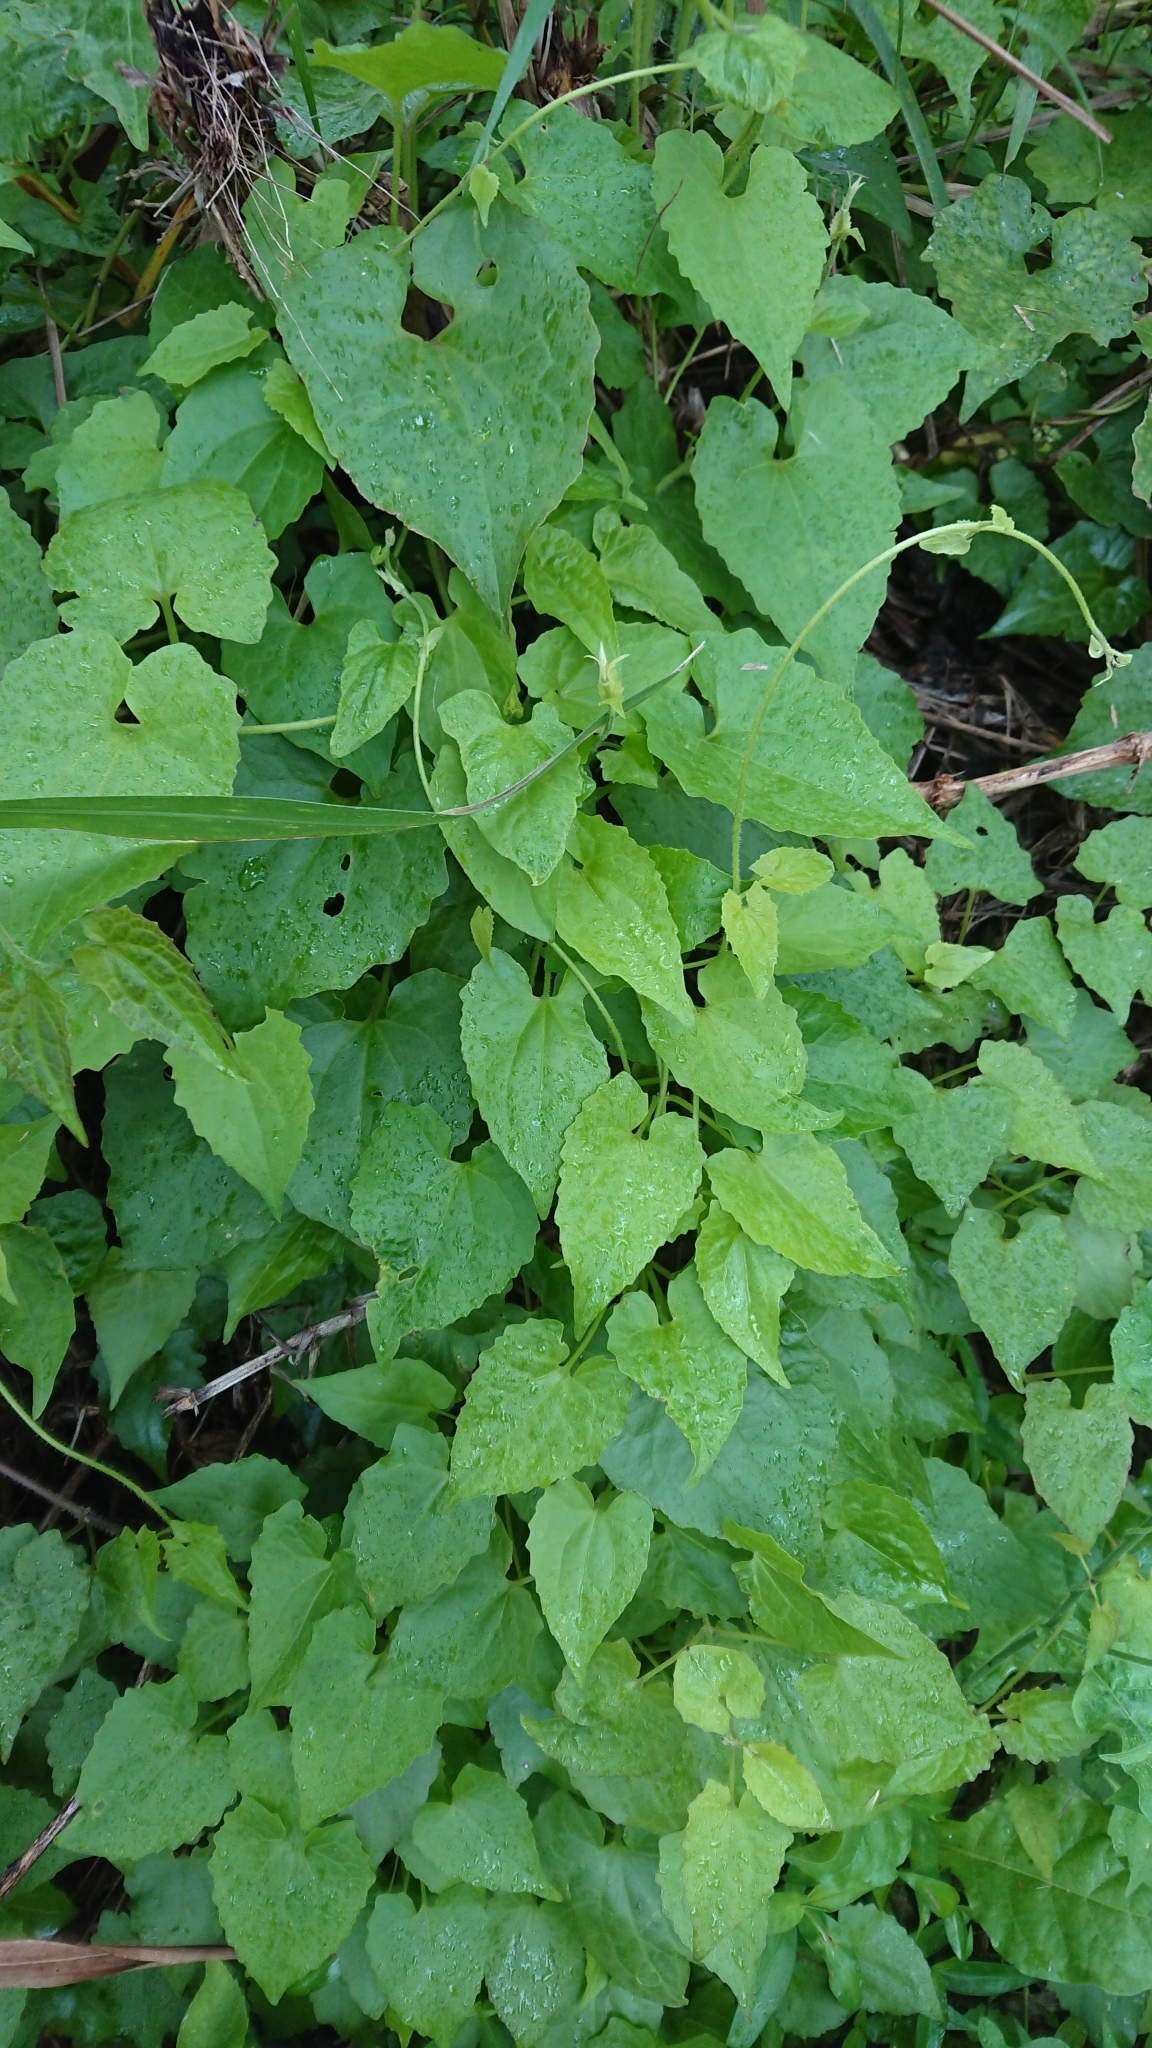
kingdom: Plantae
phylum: Tracheophyta
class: Magnoliopsida
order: Asterales
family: Asteraceae
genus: Mikania
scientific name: Mikania micrantha
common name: Mile-a-minute
